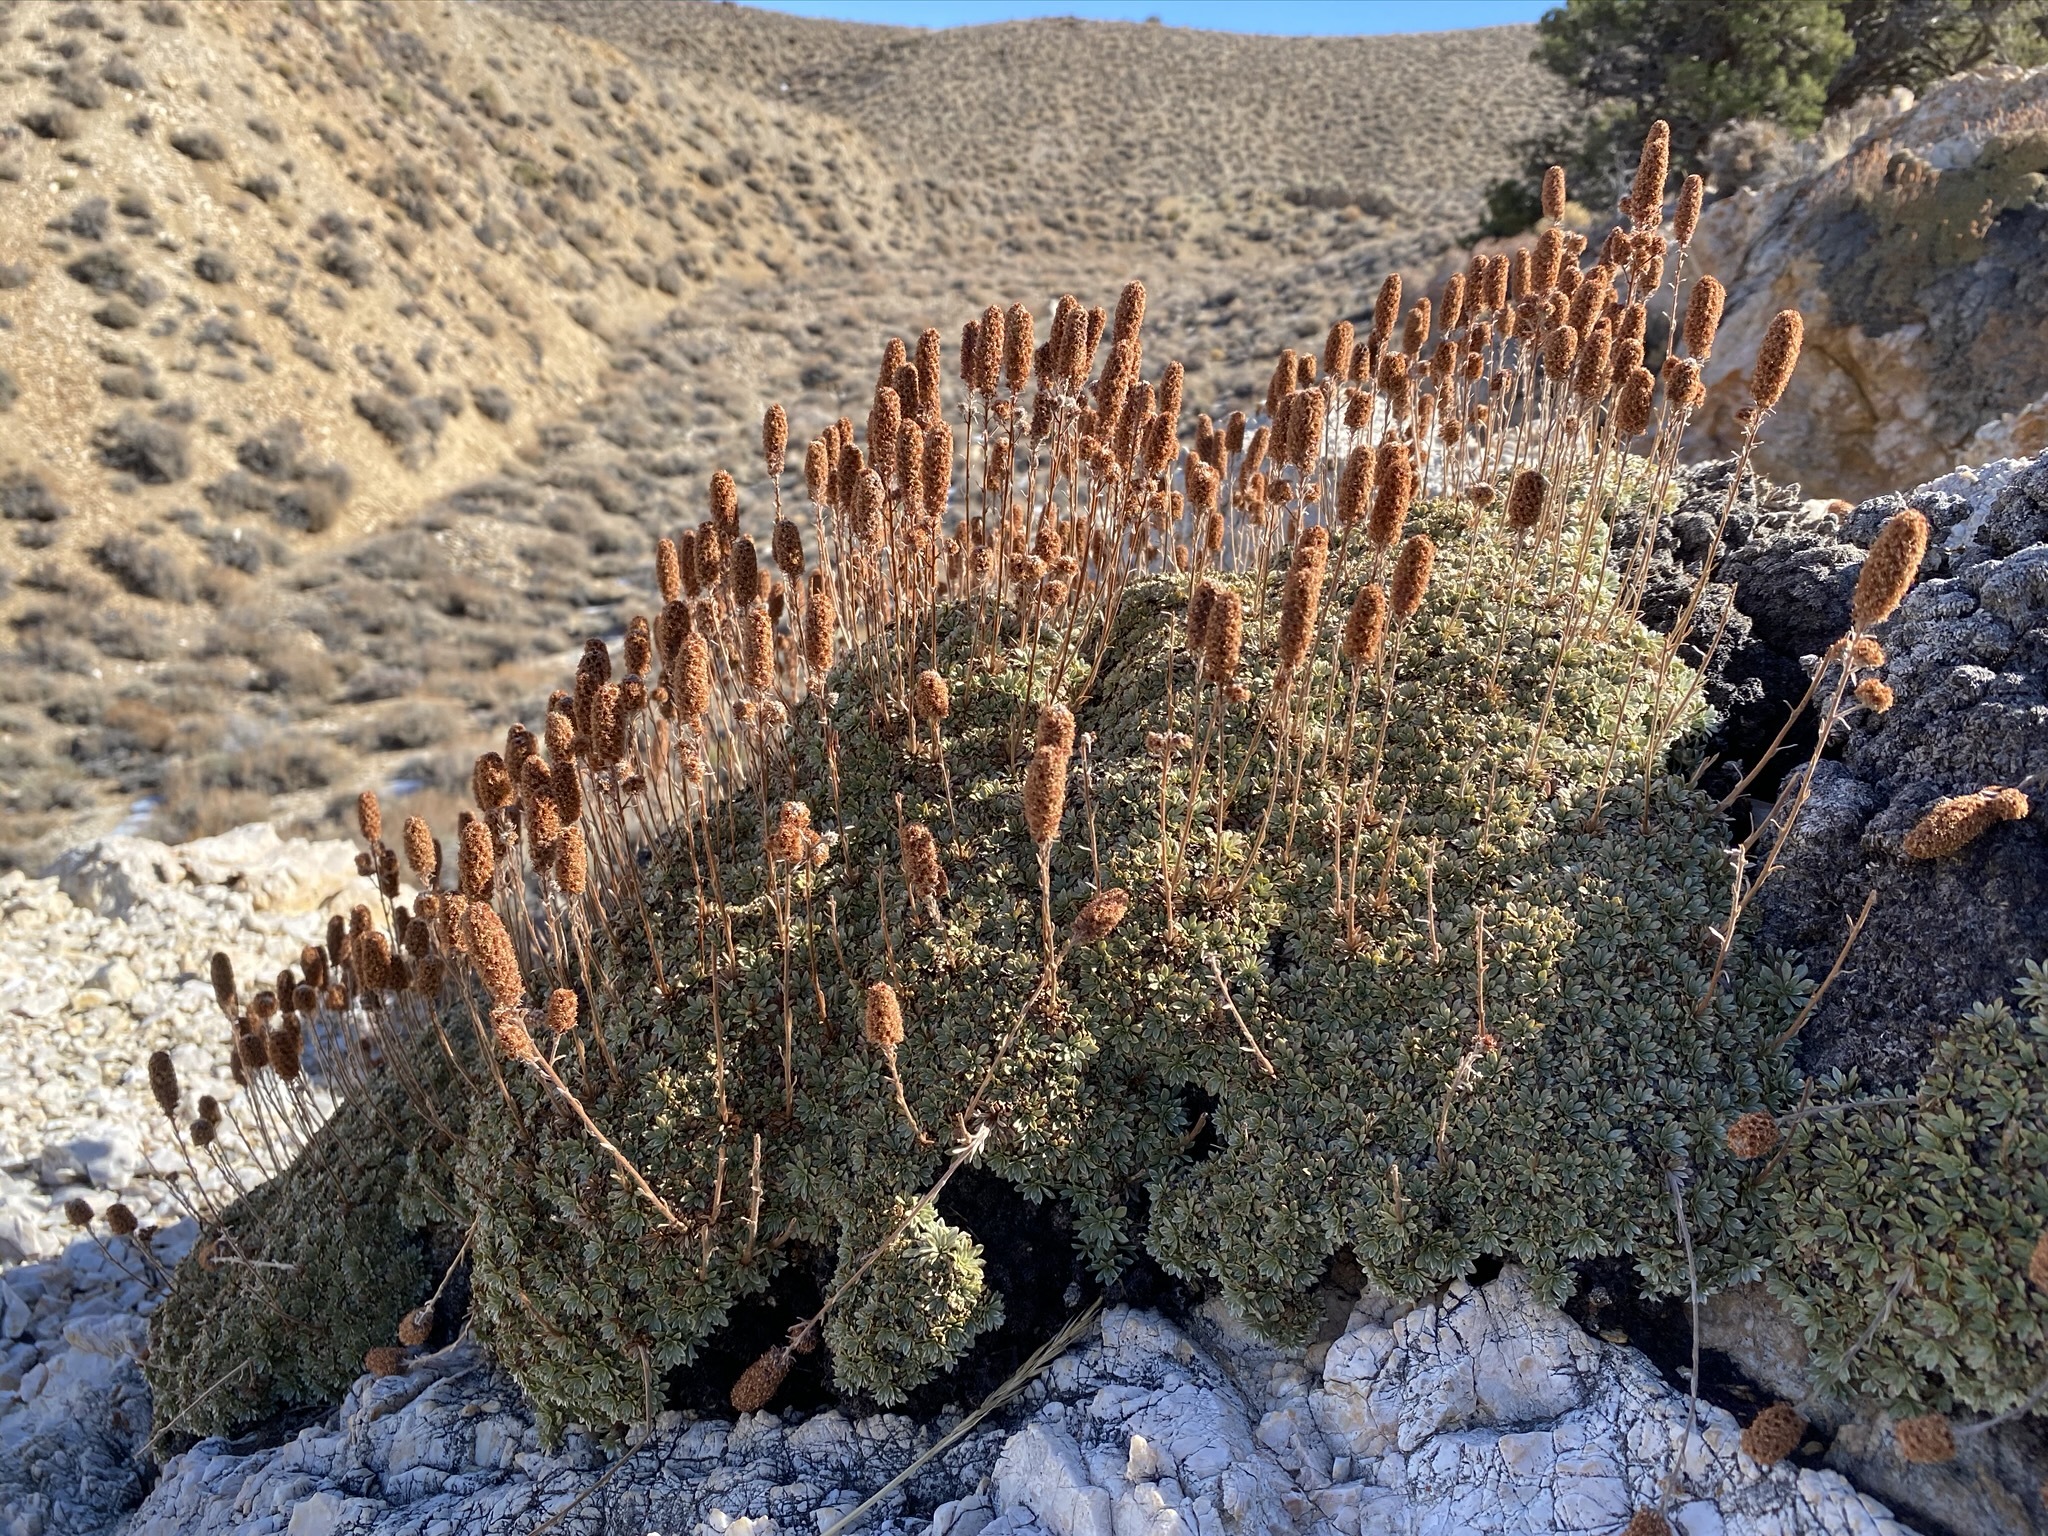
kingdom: Plantae
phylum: Tracheophyta
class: Magnoliopsida
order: Rosales
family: Rosaceae
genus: Petrophytum
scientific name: Petrophytum caespitosum
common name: Mat rockspirea
